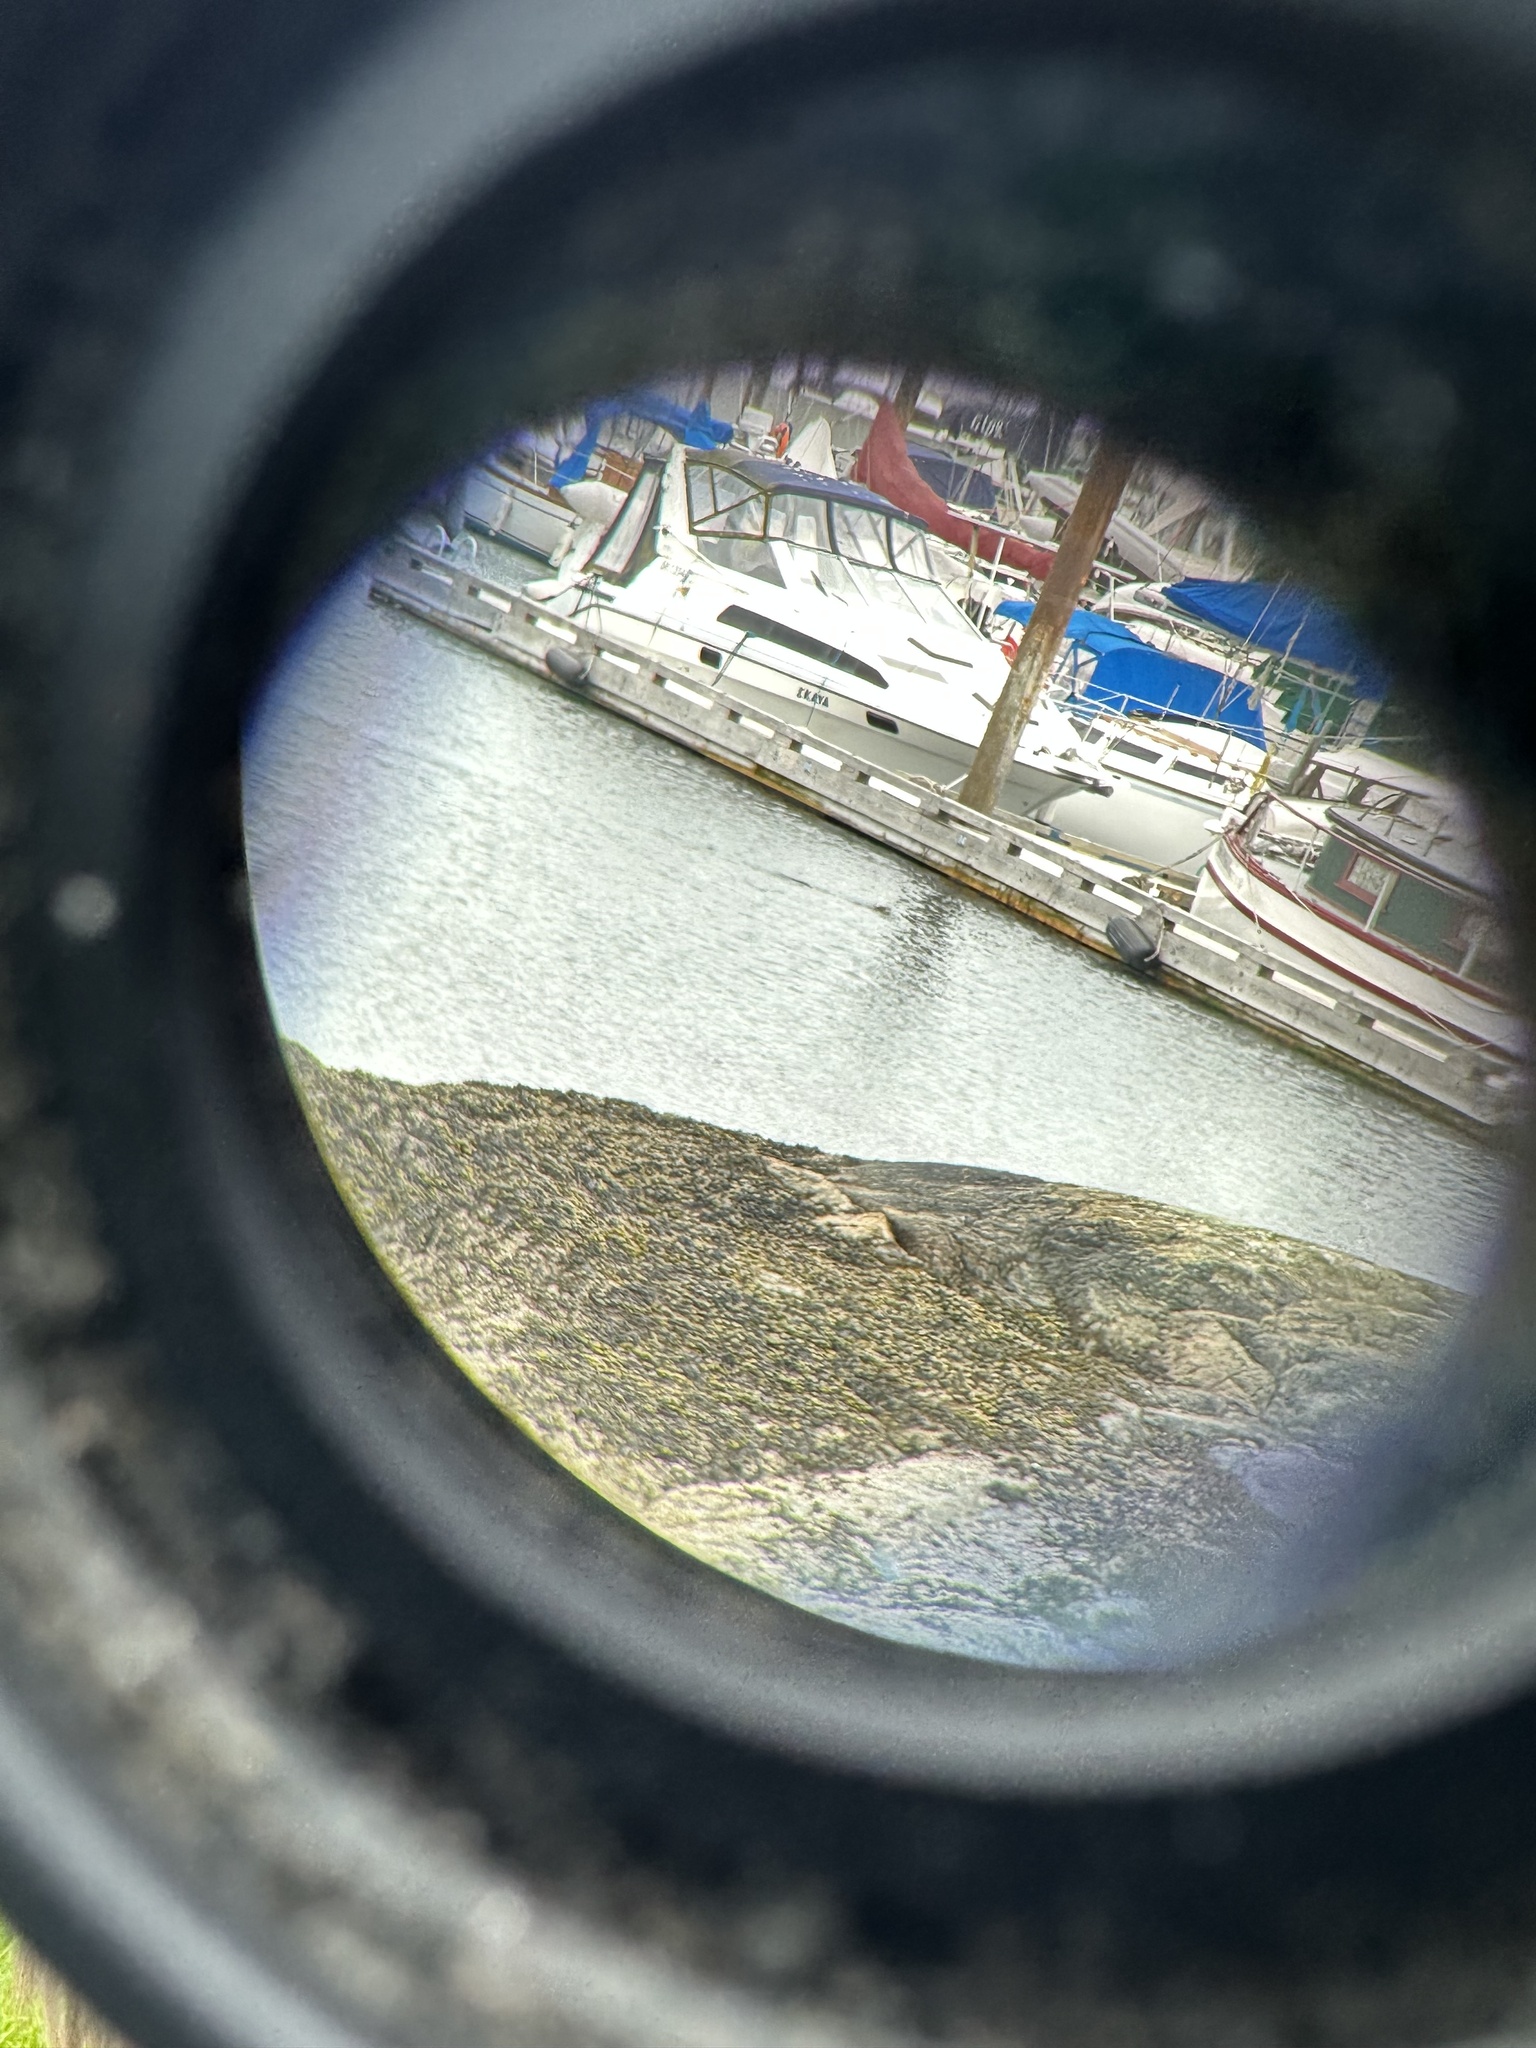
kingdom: Animalia
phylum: Chordata
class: Mammalia
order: Carnivora
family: Mustelidae
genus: Lontra
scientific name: Lontra canadensis
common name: North american river otter
